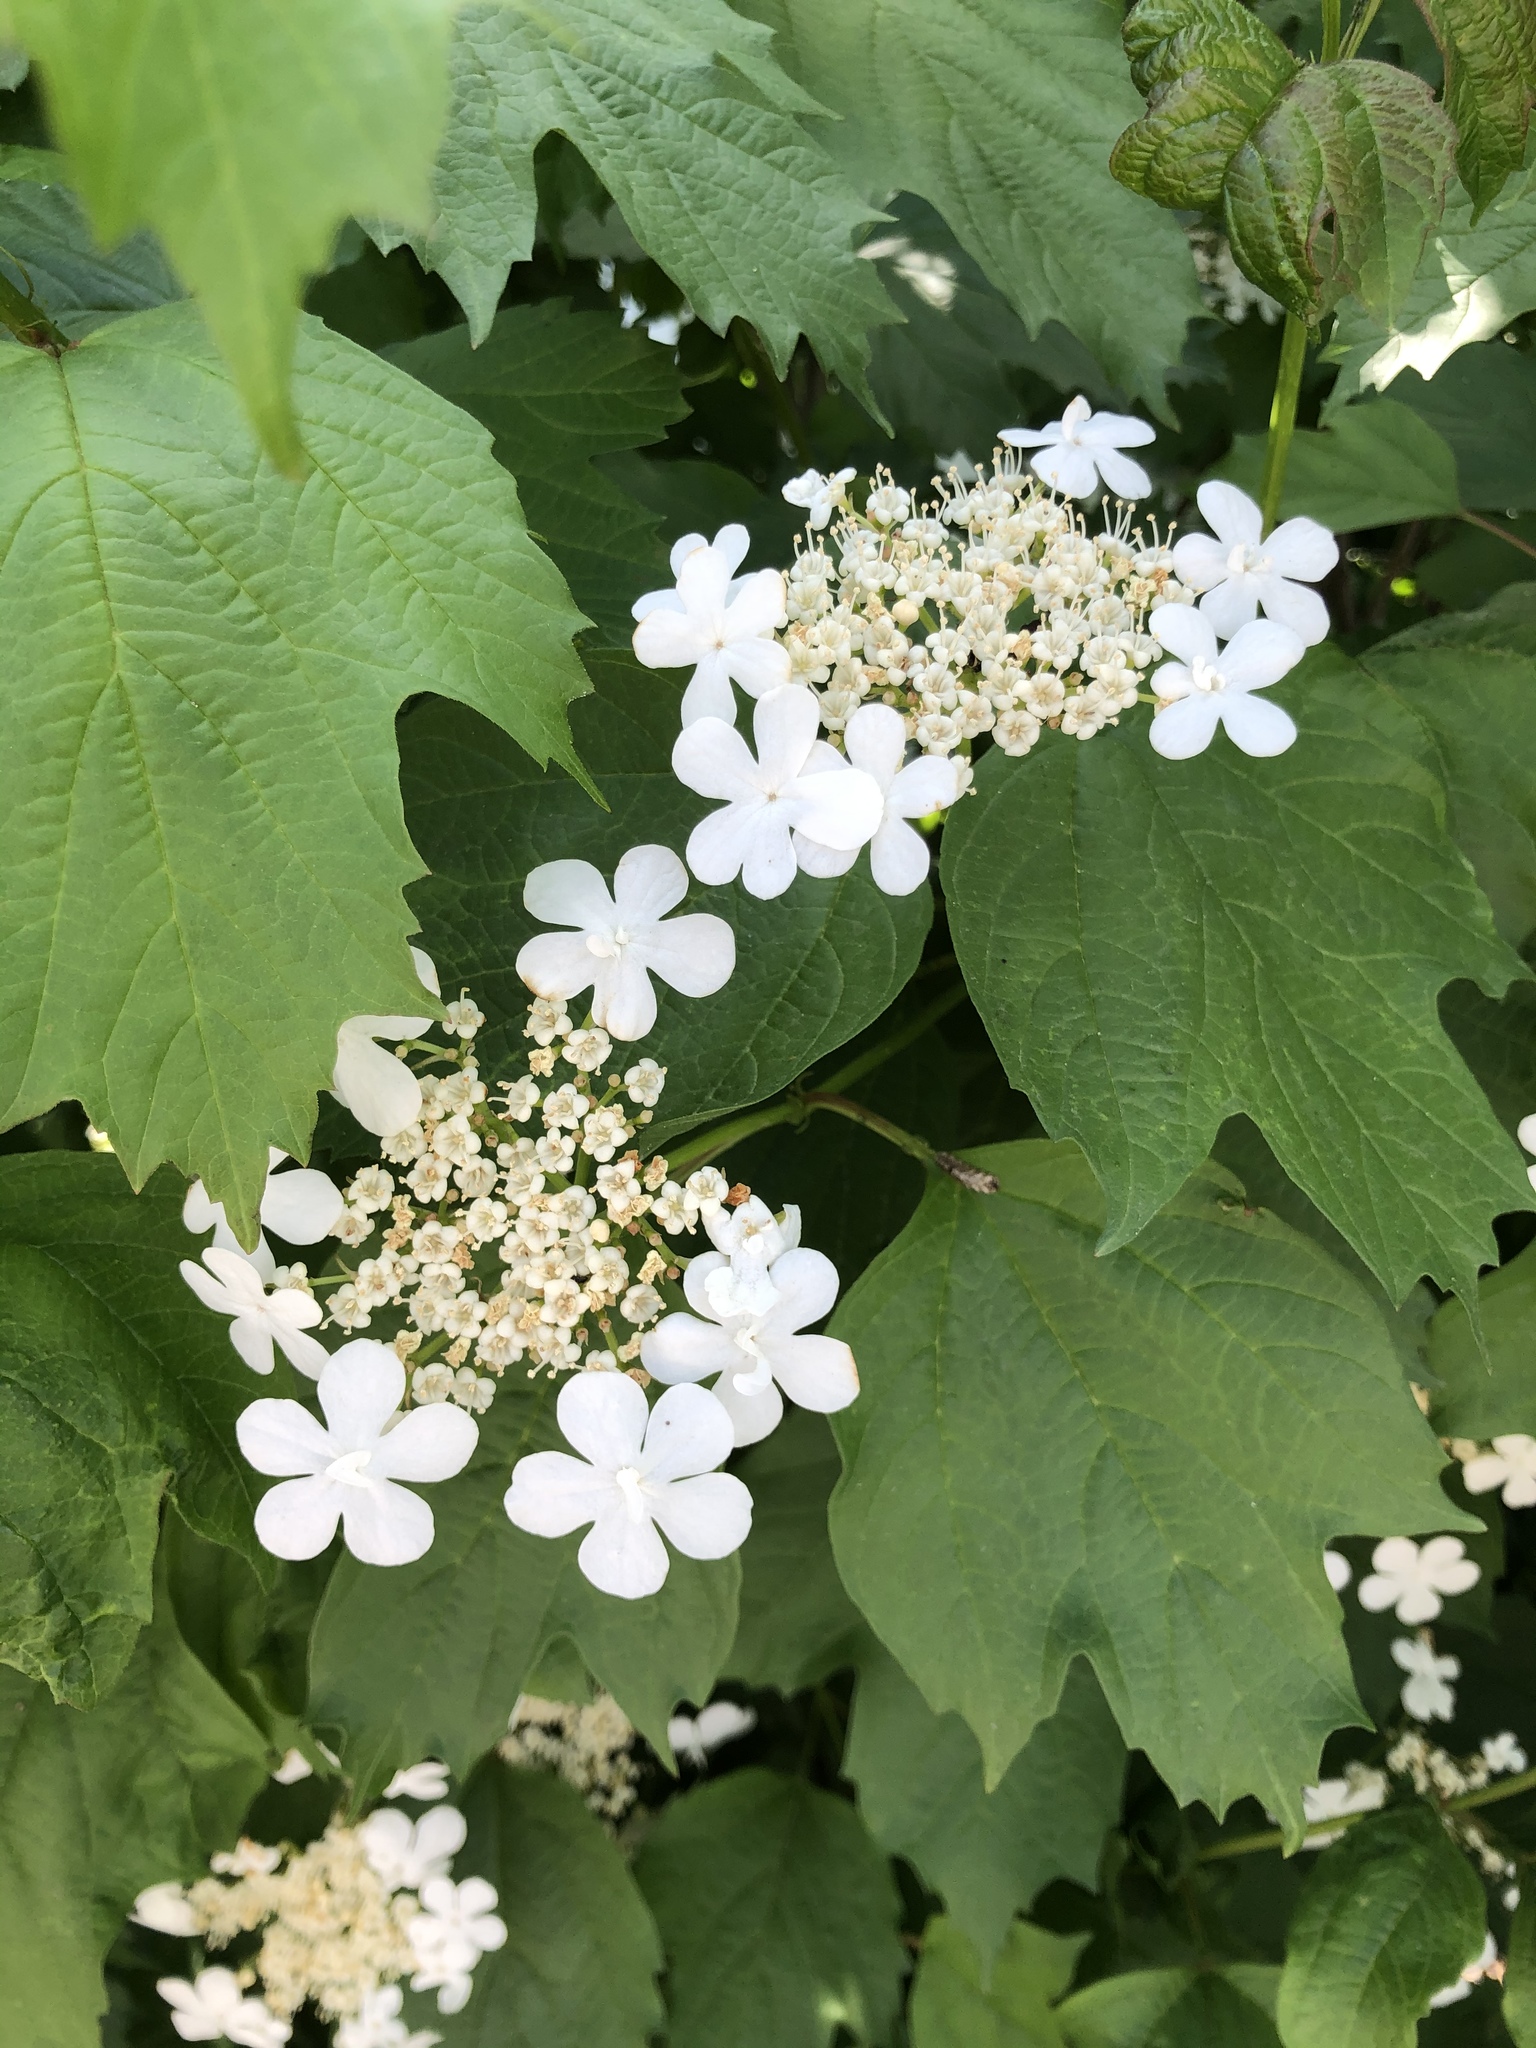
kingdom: Plantae
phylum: Tracheophyta
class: Magnoliopsida
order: Dipsacales
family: Viburnaceae
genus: Viburnum
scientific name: Viburnum opulus
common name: Guelder-rose
